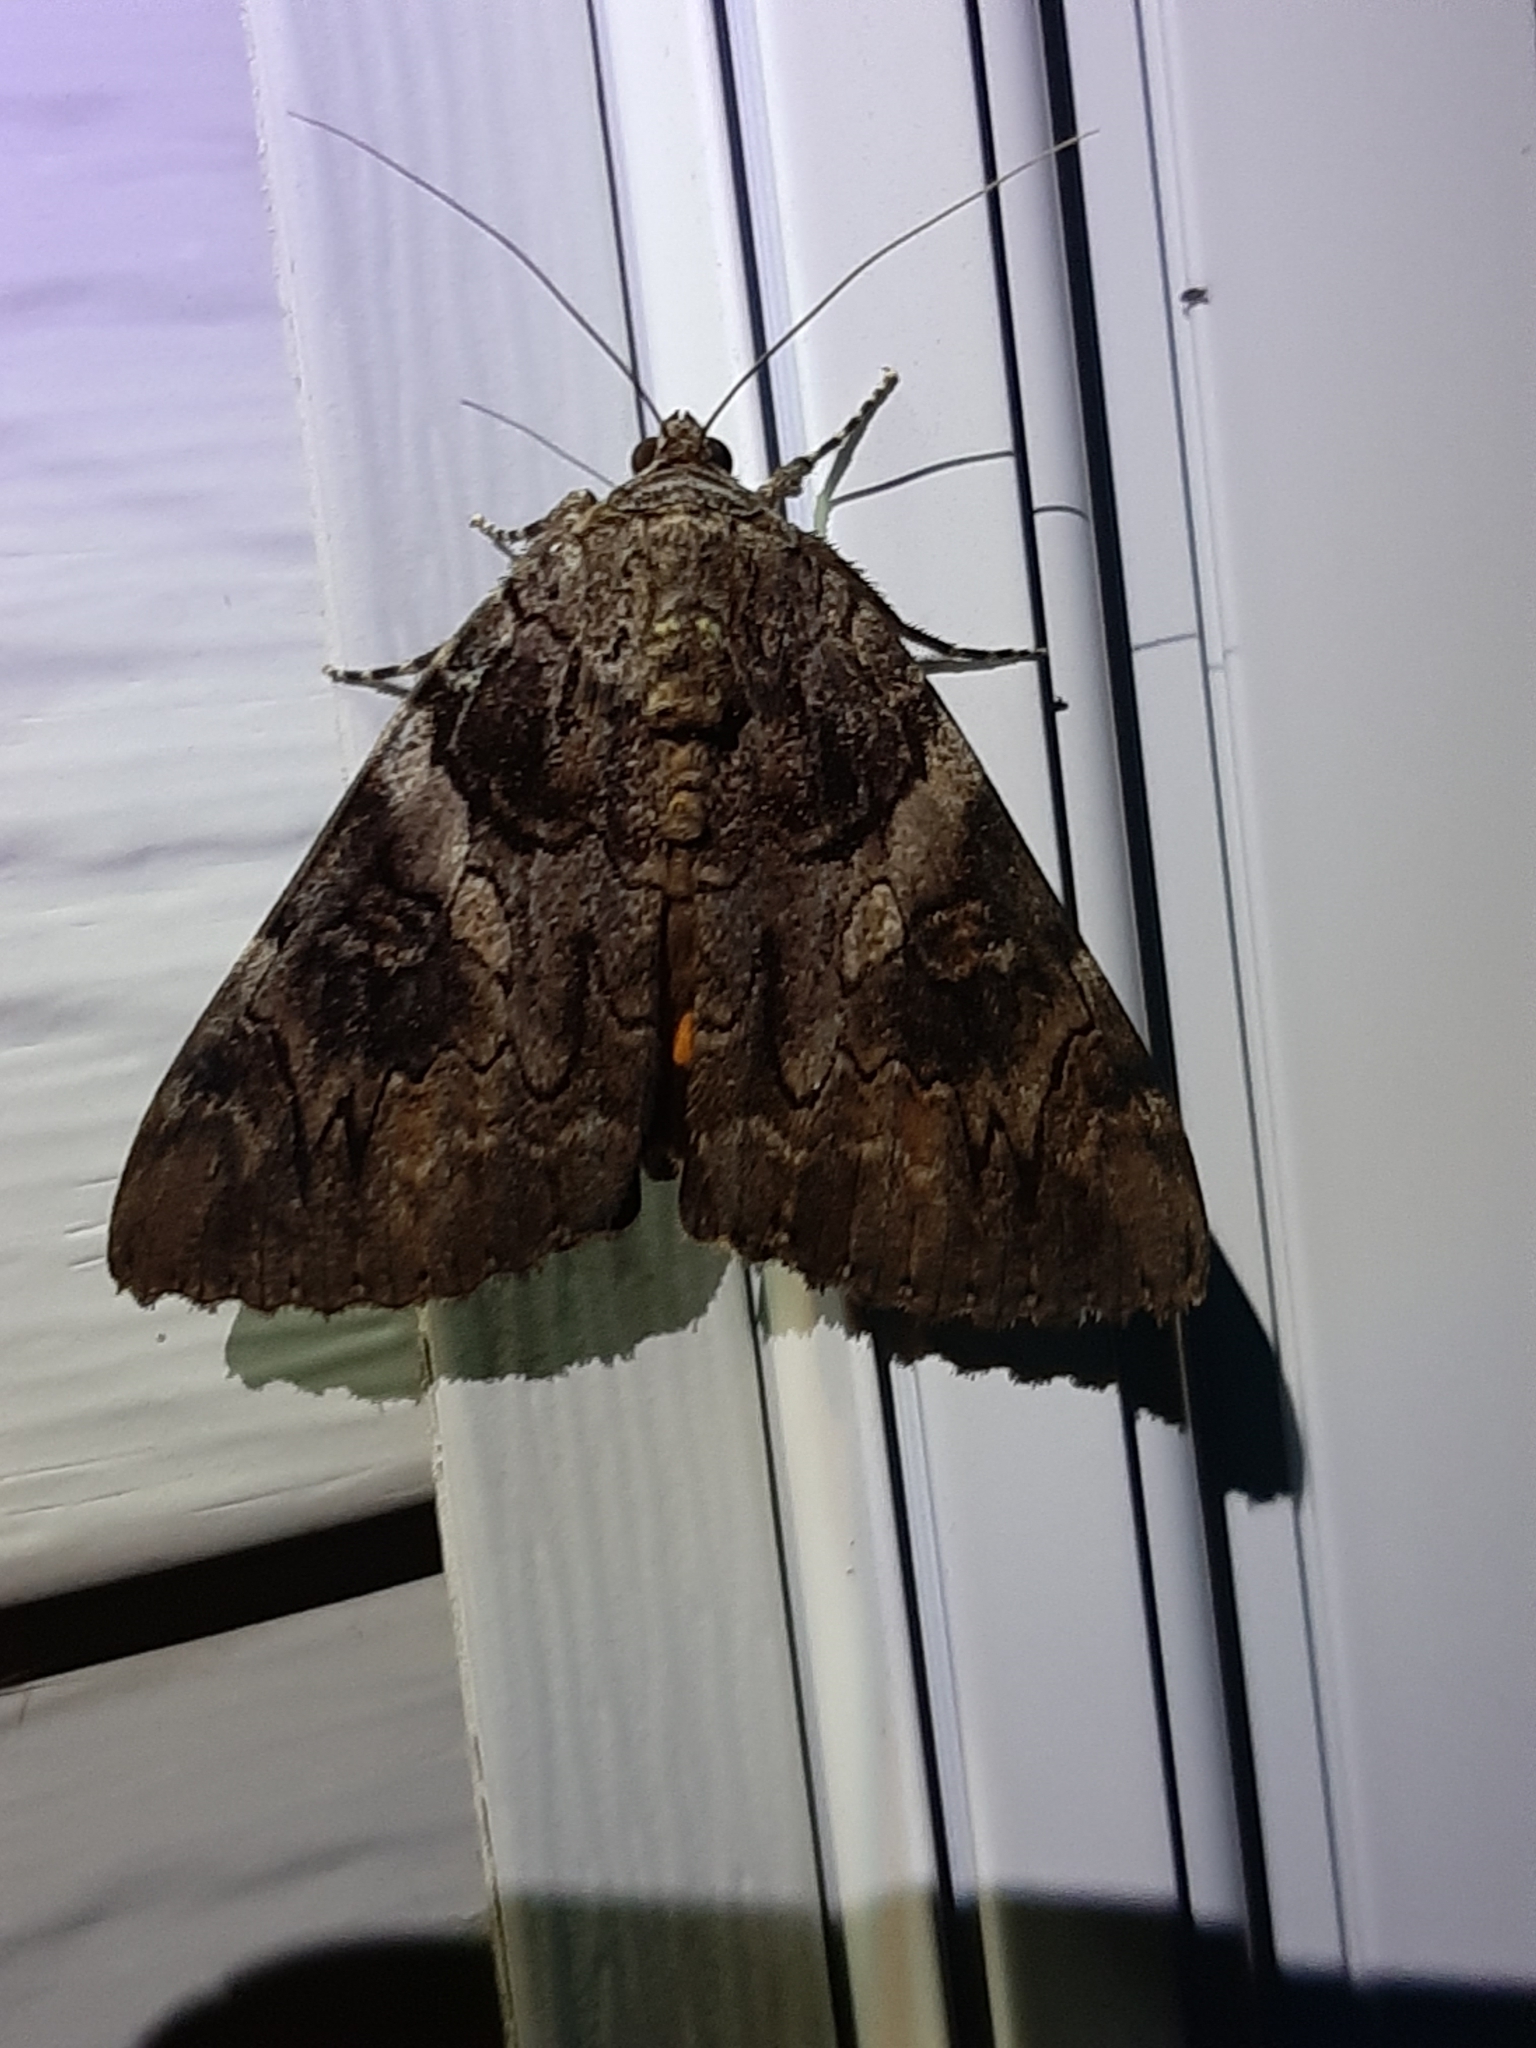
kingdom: Animalia
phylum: Arthropoda
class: Insecta
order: Lepidoptera
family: Erebidae
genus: Catocala
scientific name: Catocala piatrix
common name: The penitent underwing
